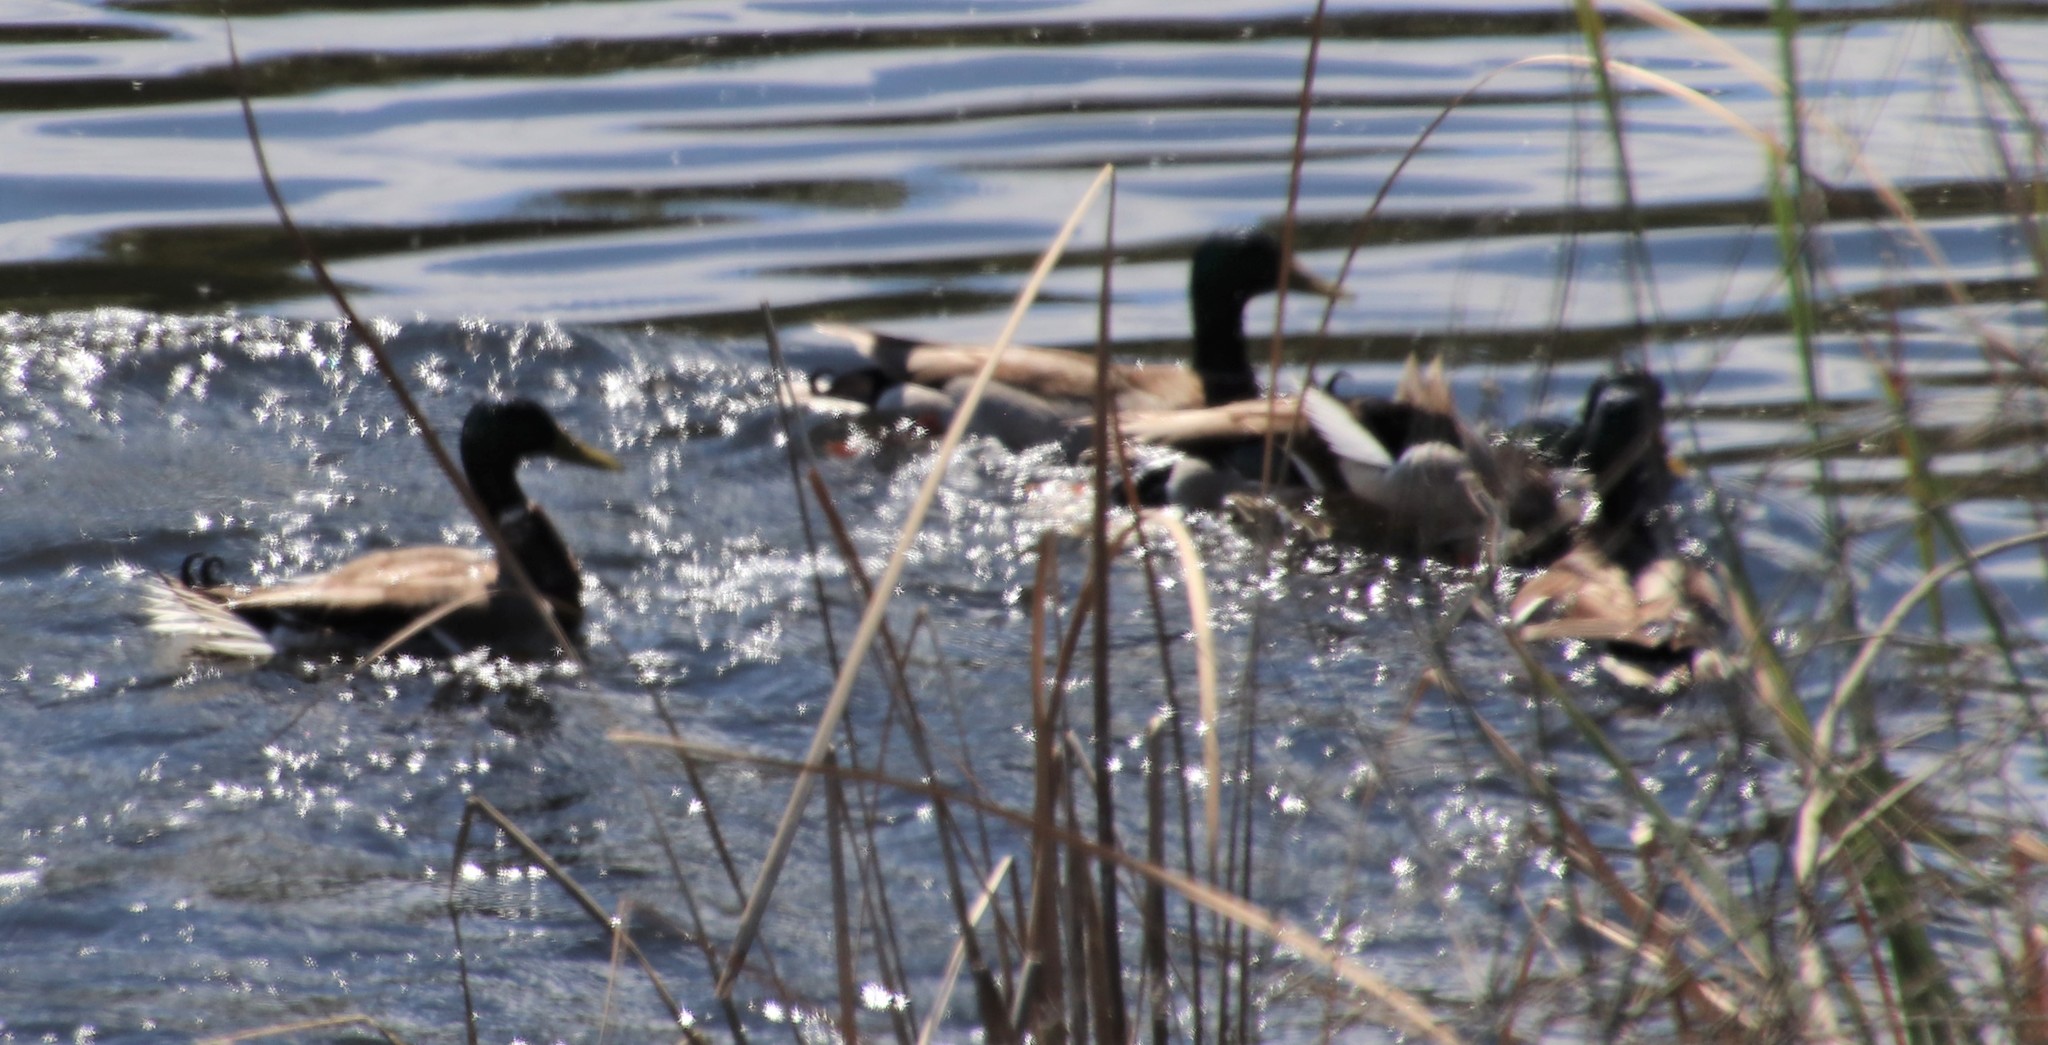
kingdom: Animalia
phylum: Chordata
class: Aves
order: Anseriformes
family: Anatidae
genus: Anas
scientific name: Anas platyrhynchos
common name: Mallard
